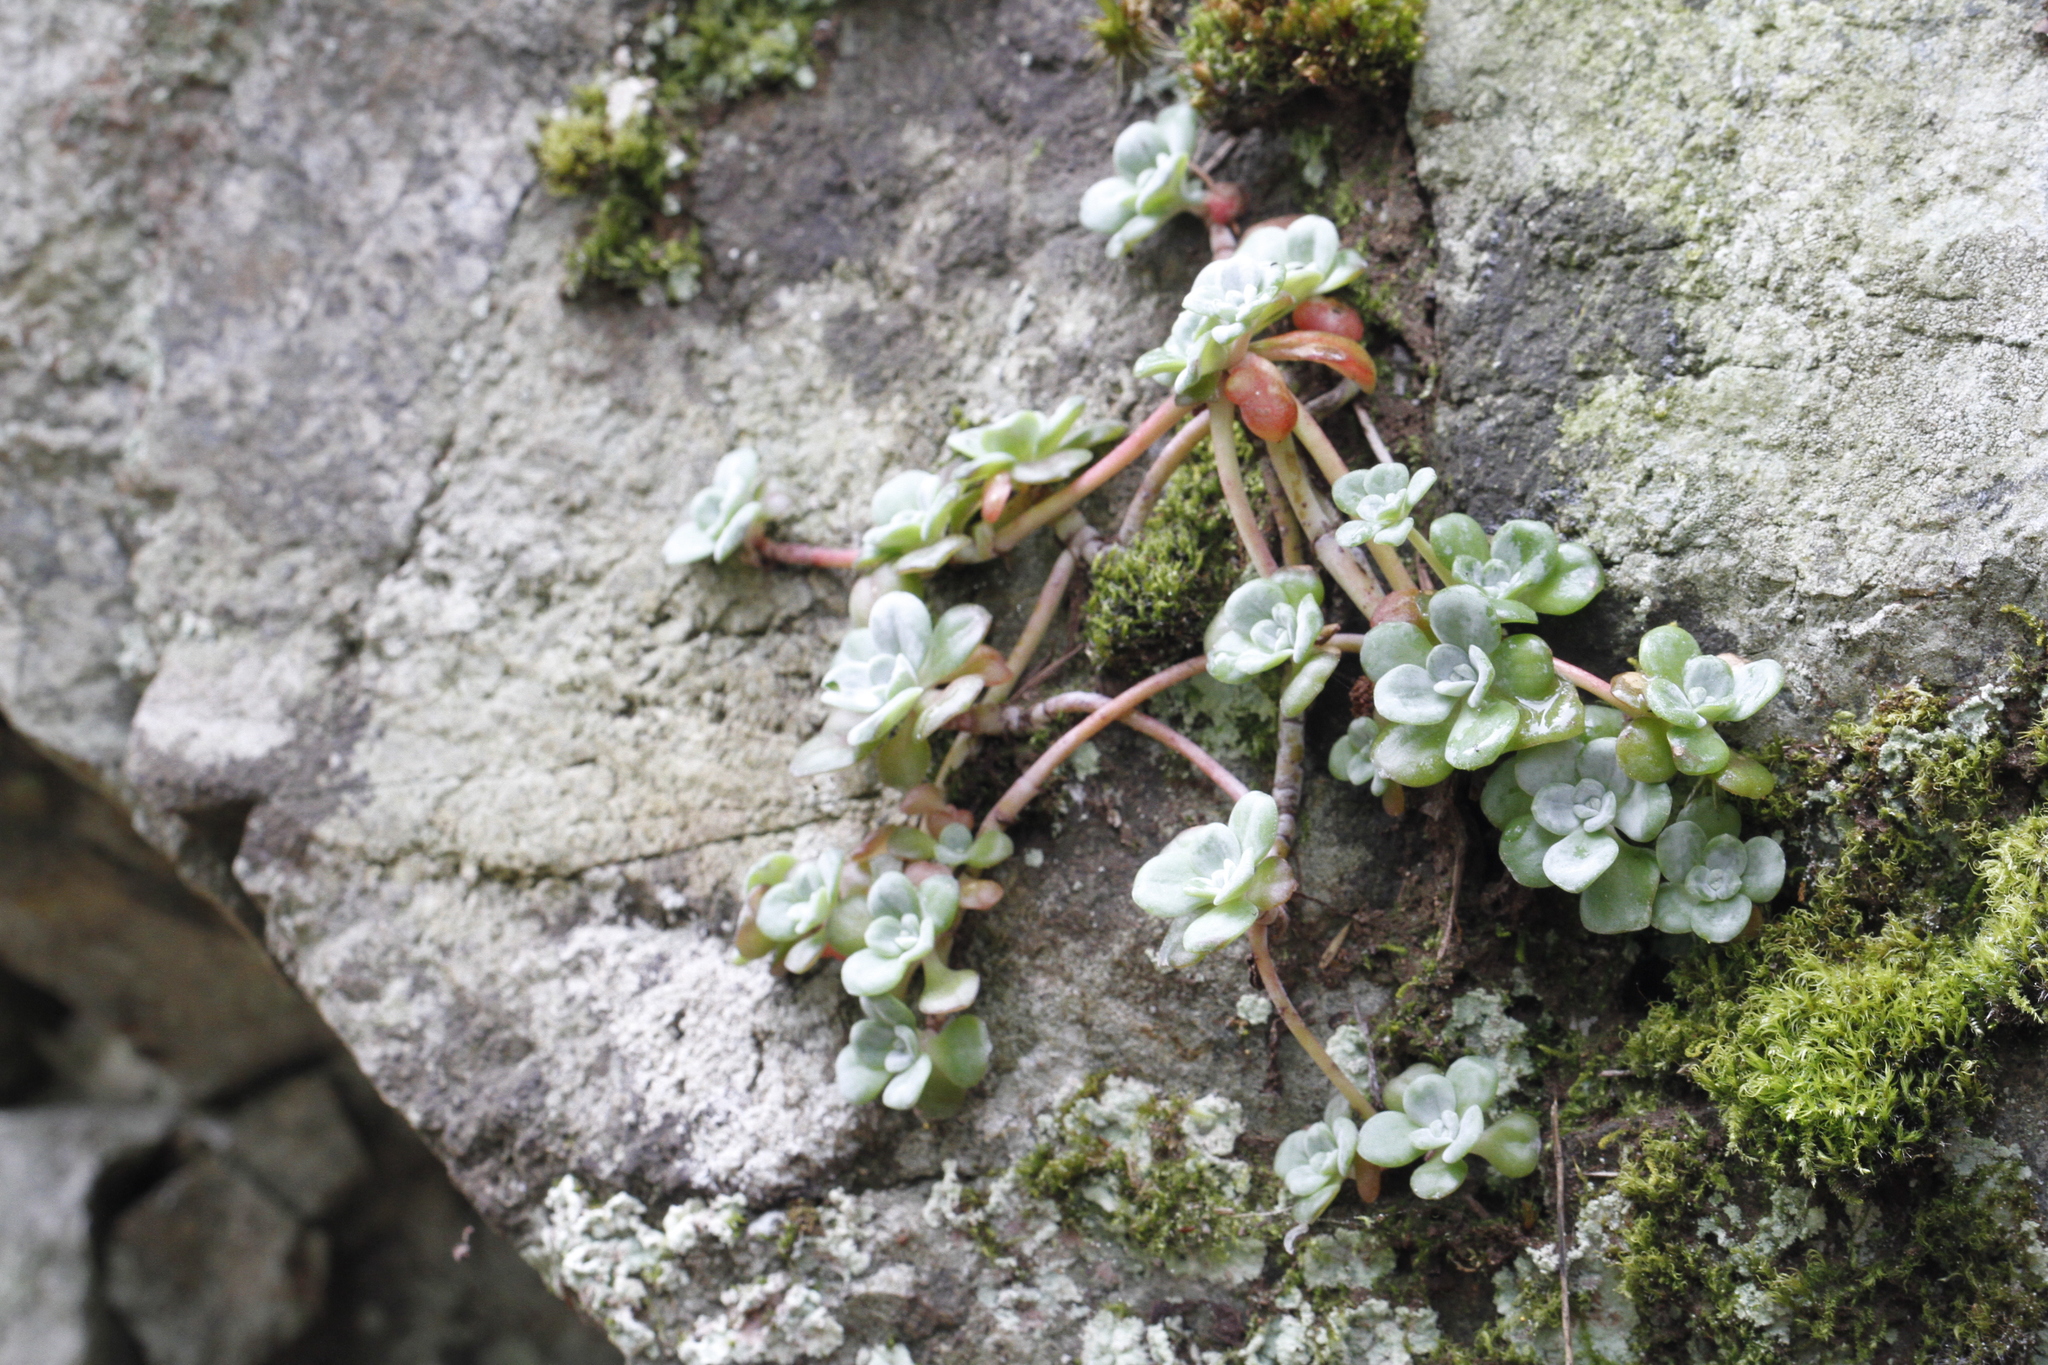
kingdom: Plantae
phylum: Tracheophyta
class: Magnoliopsida
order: Saxifragales
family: Crassulaceae
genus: Sedum
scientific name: Sedum spathulifolium
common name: Colorado stonecrop
